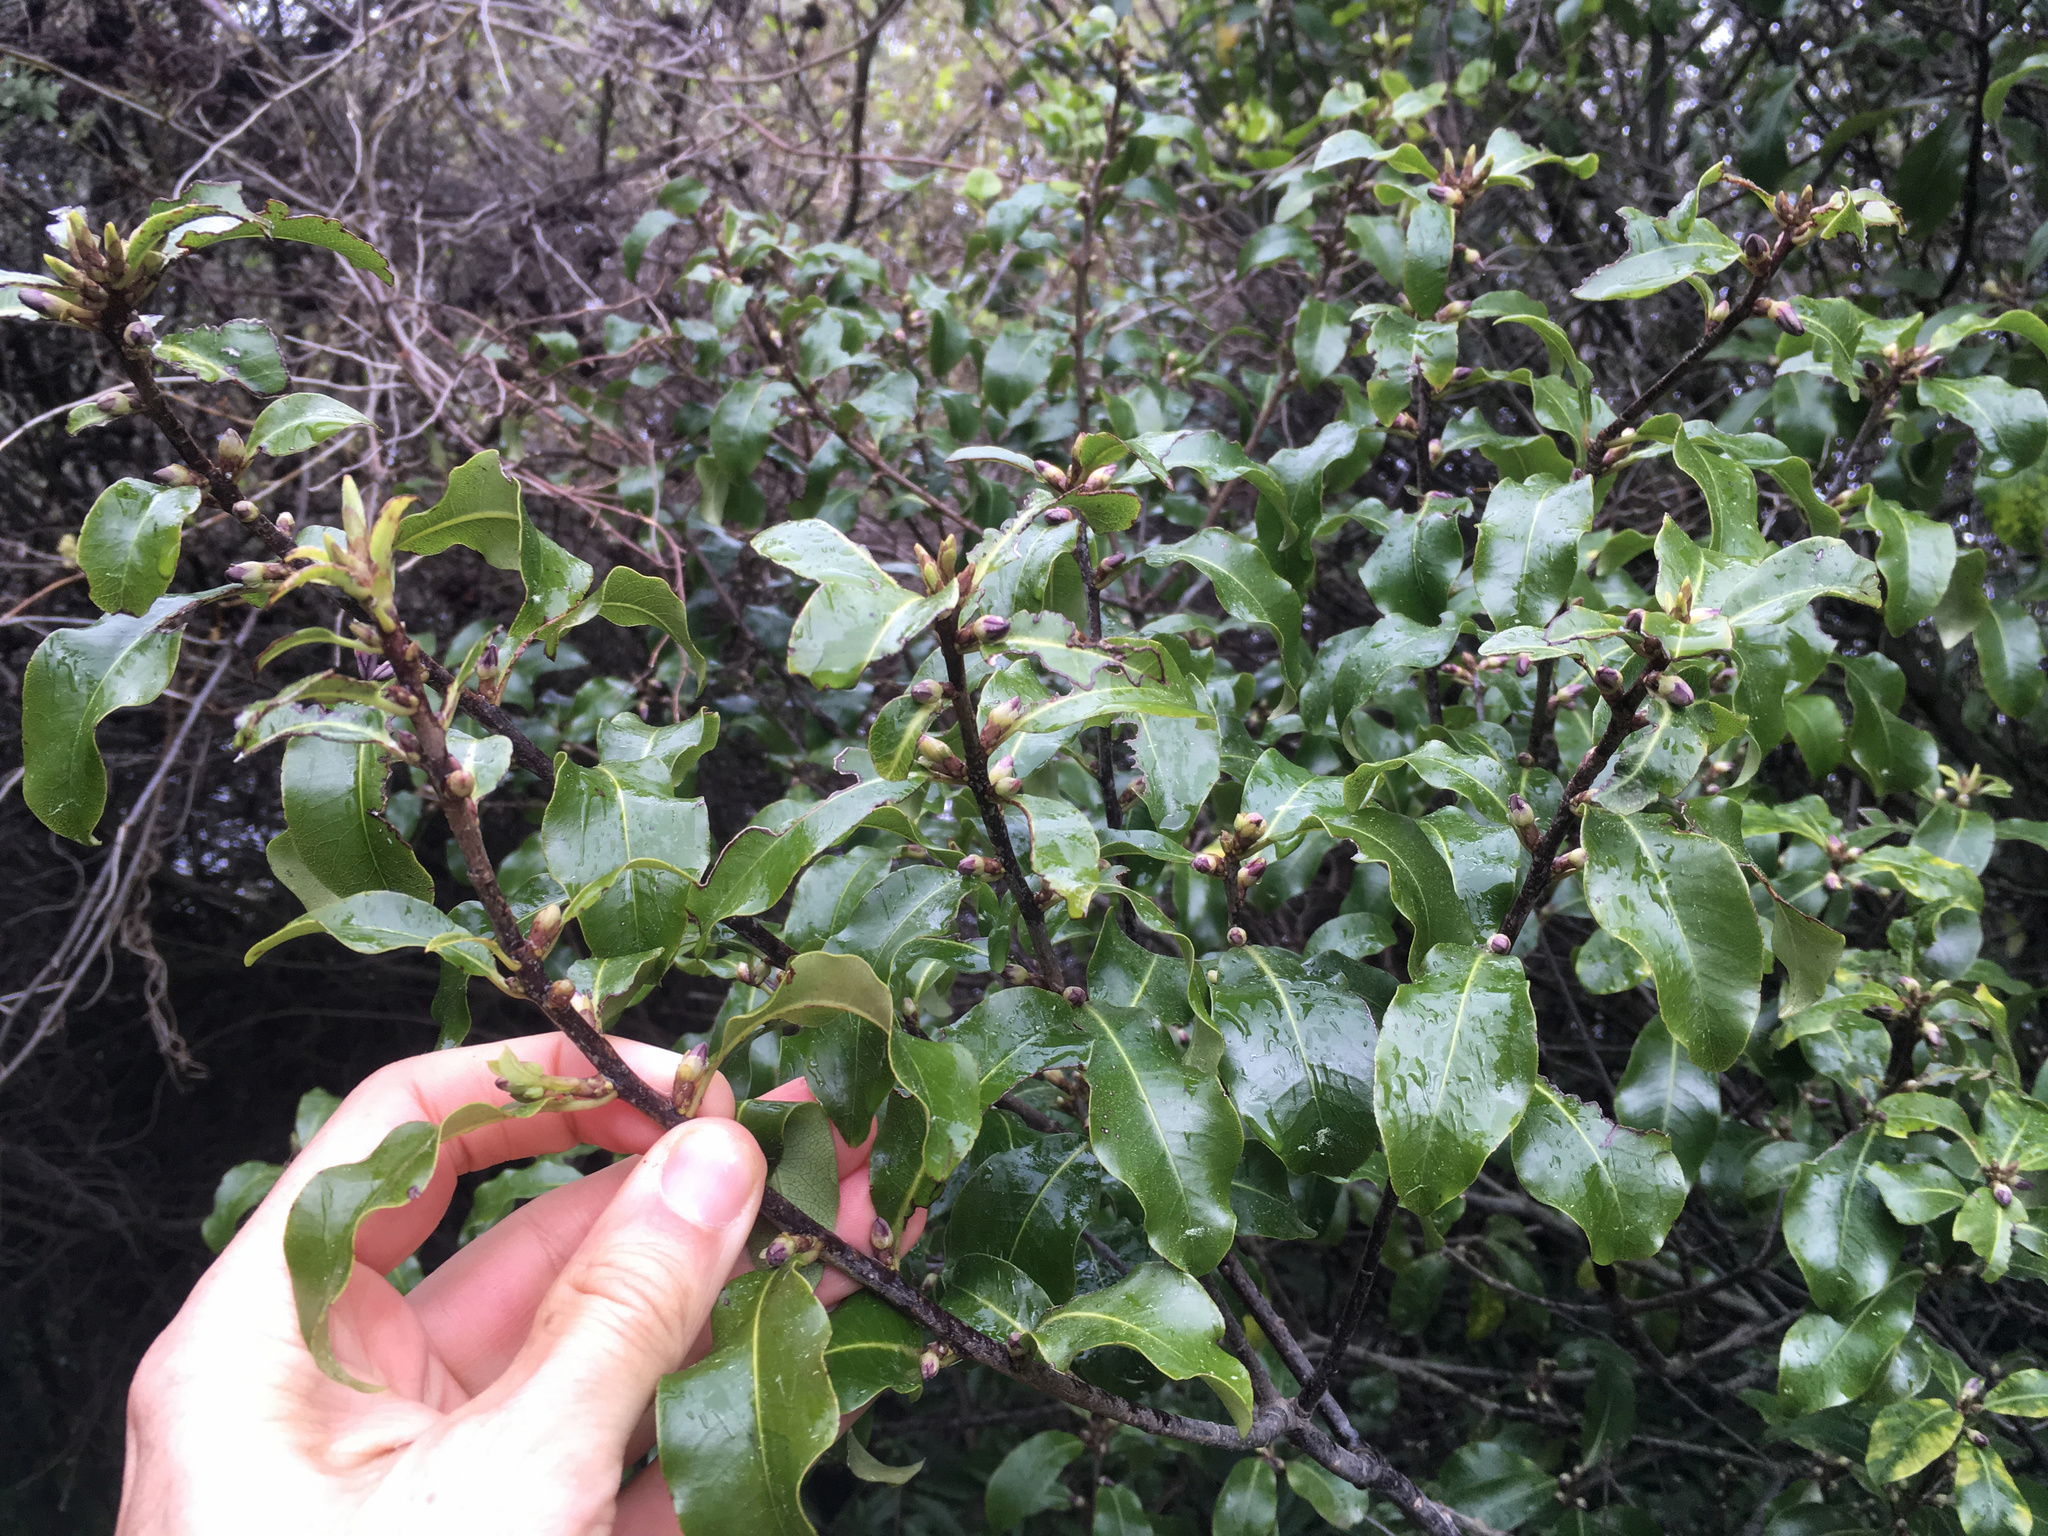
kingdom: Plantae
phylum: Tracheophyta
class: Magnoliopsida
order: Apiales
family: Pittosporaceae
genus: Pittosporum
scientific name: Pittosporum tenuifolium
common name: Kohuhu
